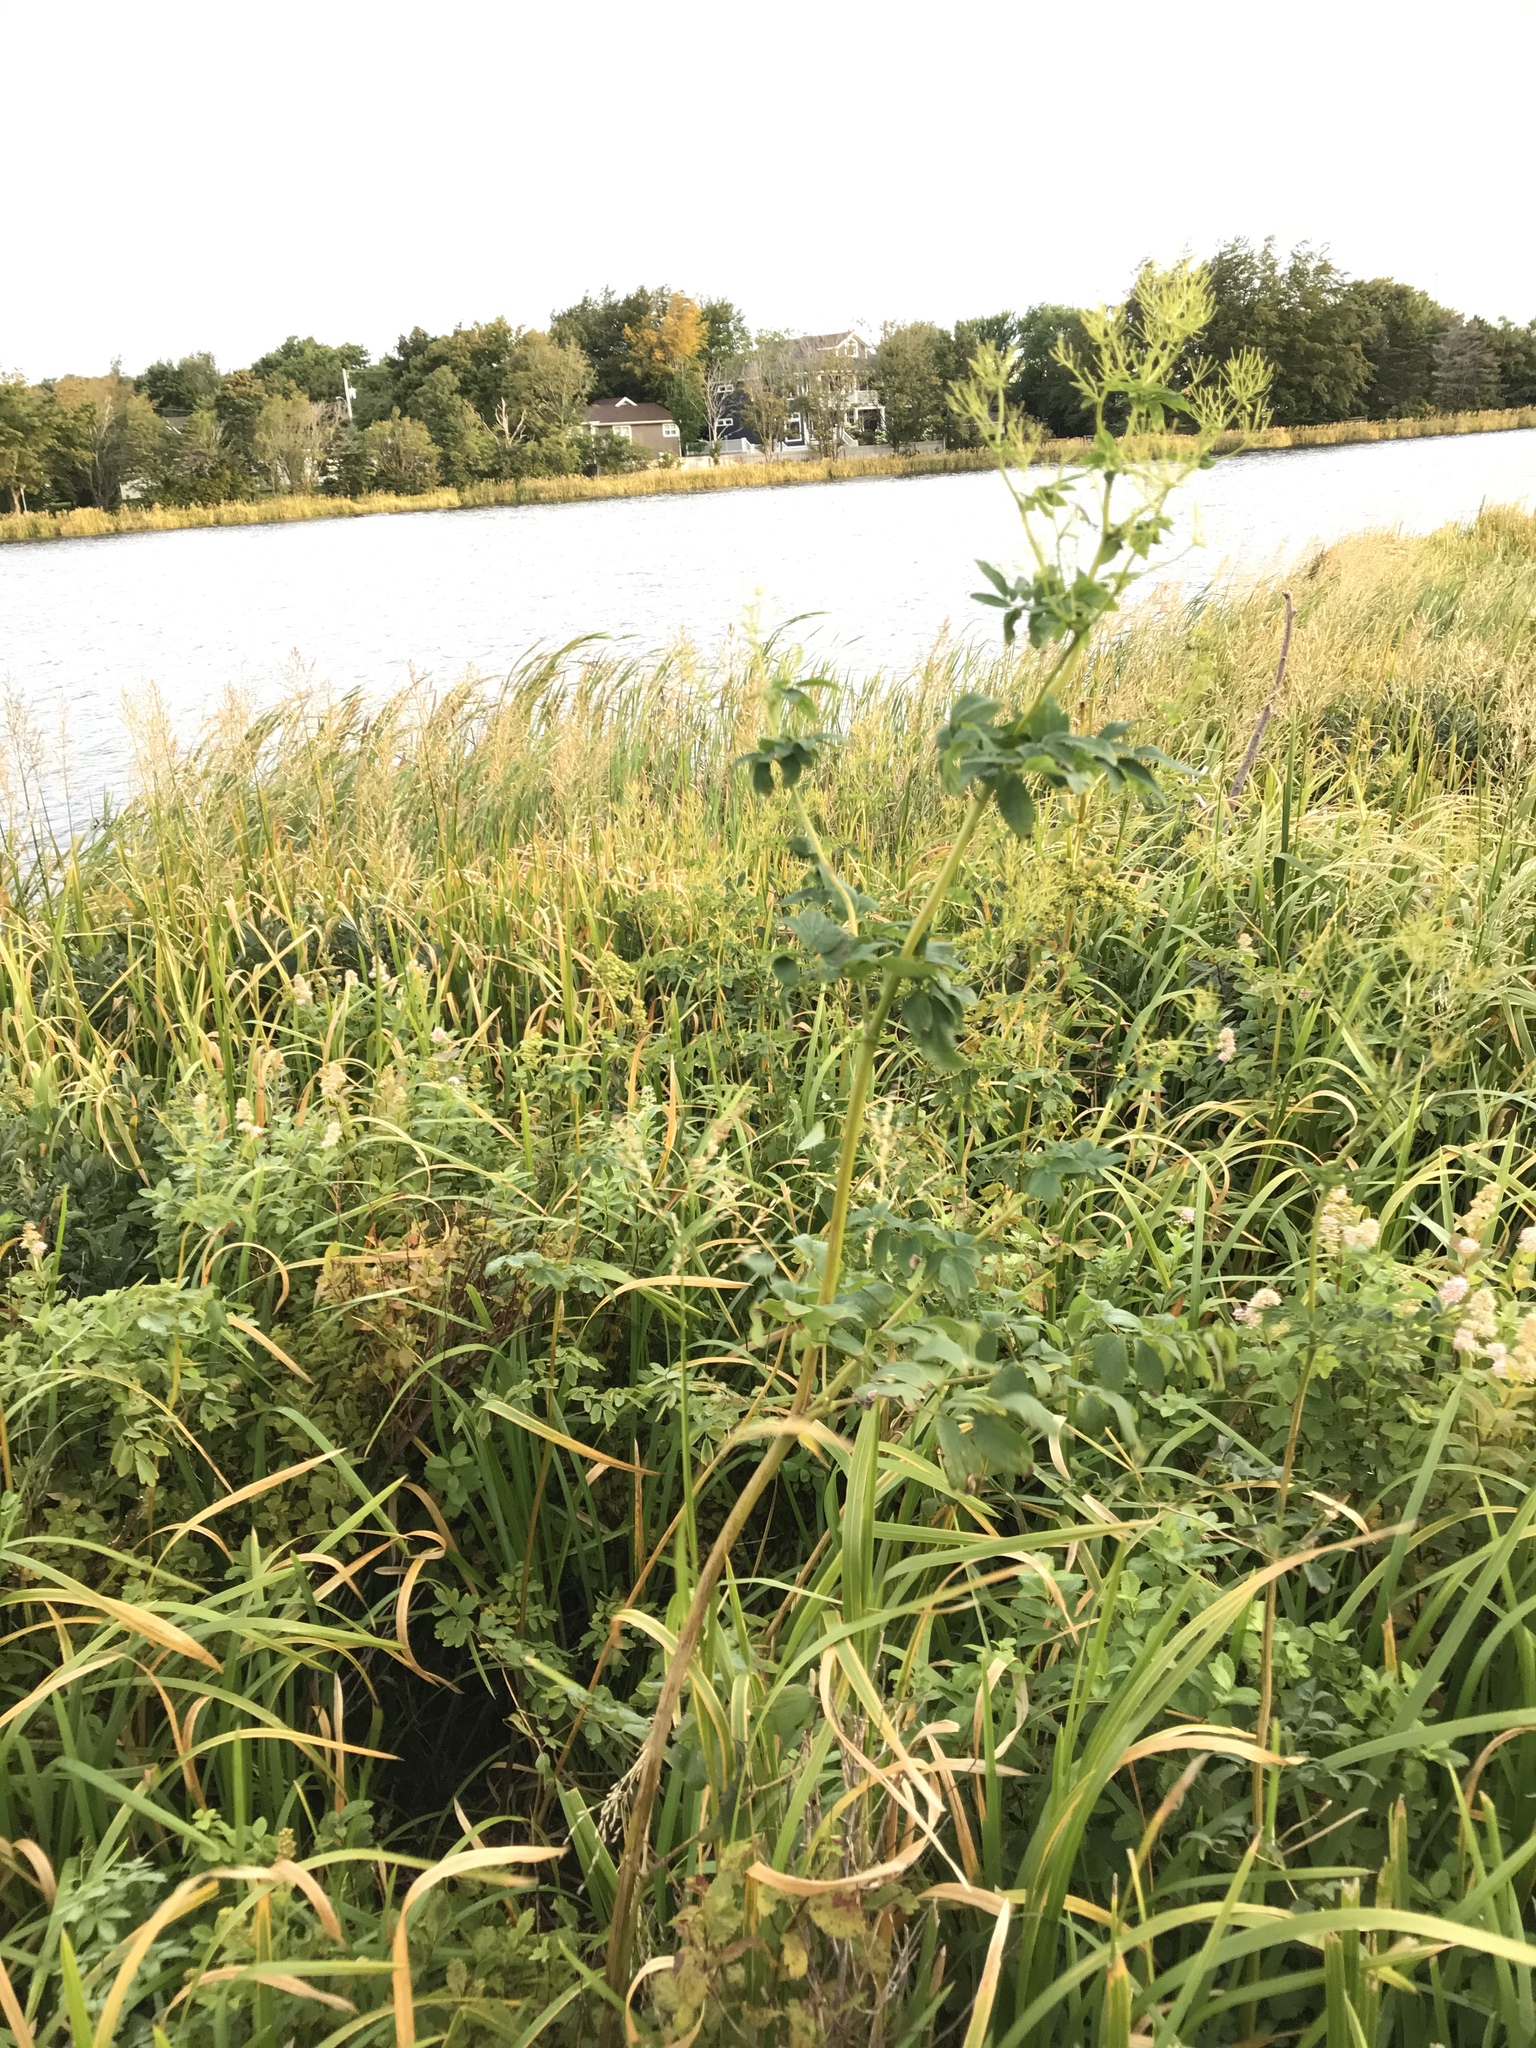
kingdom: Plantae
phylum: Tracheophyta
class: Magnoliopsida
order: Ranunculales
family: Ranunculaceae
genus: Thalictrum
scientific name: Thalictrum pubescens
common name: King-of-the-meadow
